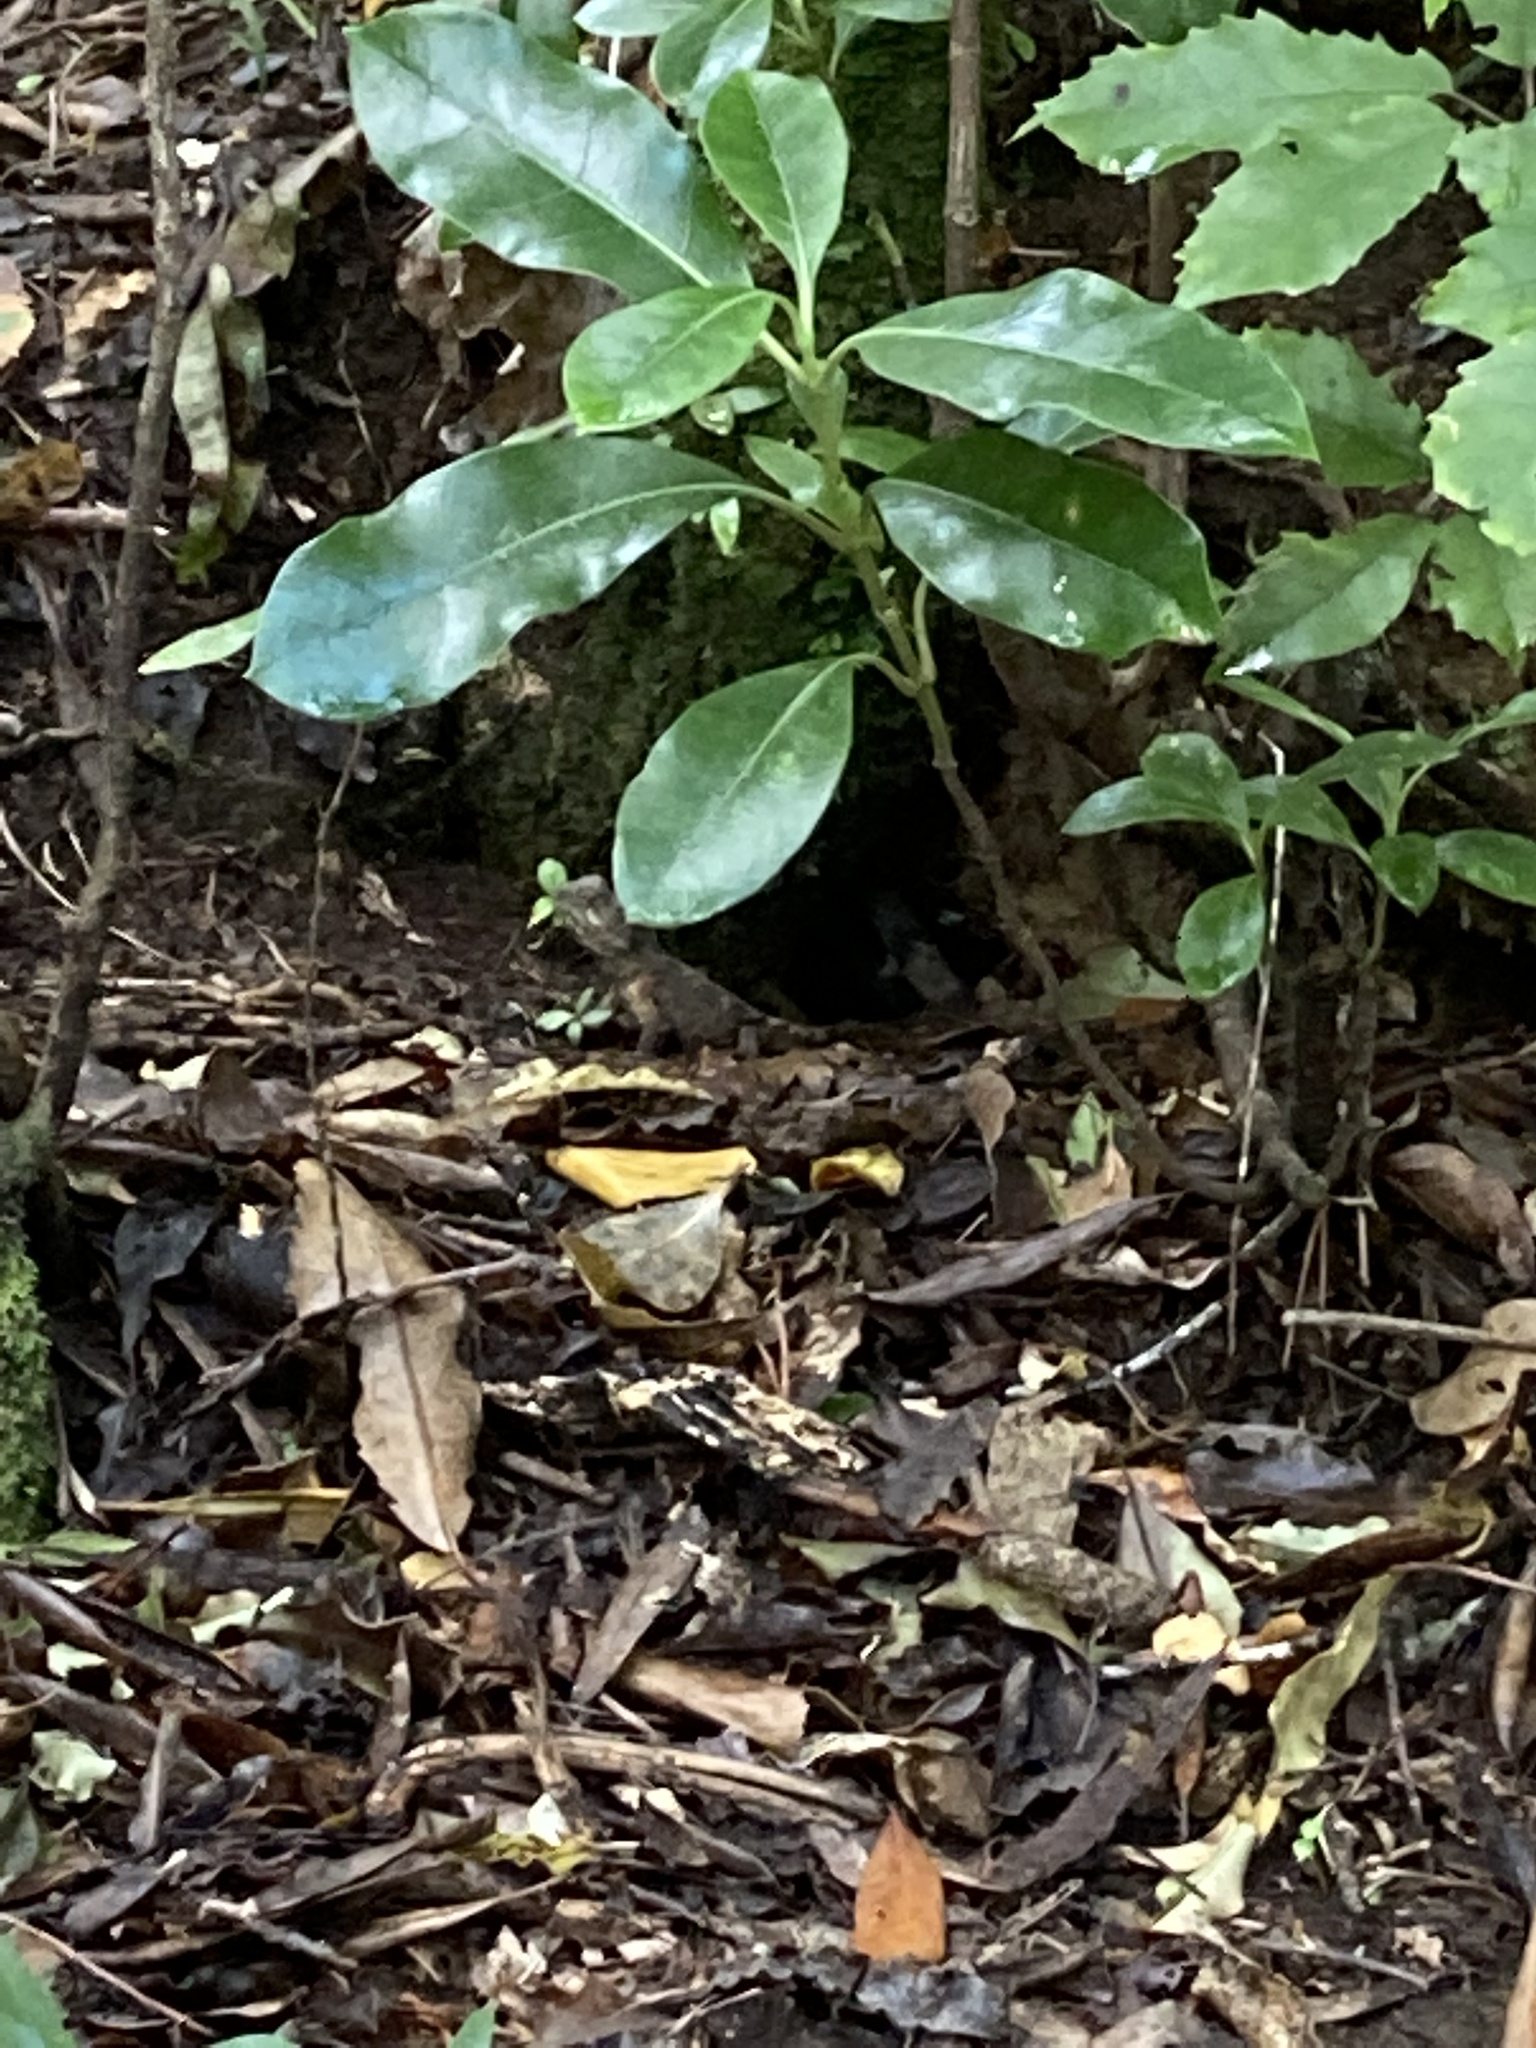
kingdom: Animalia
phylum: Chordata
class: Sphenodontia
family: Sphenodontidae
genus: Sphenodon
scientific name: Sphenodon punctatus
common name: Tuatara
